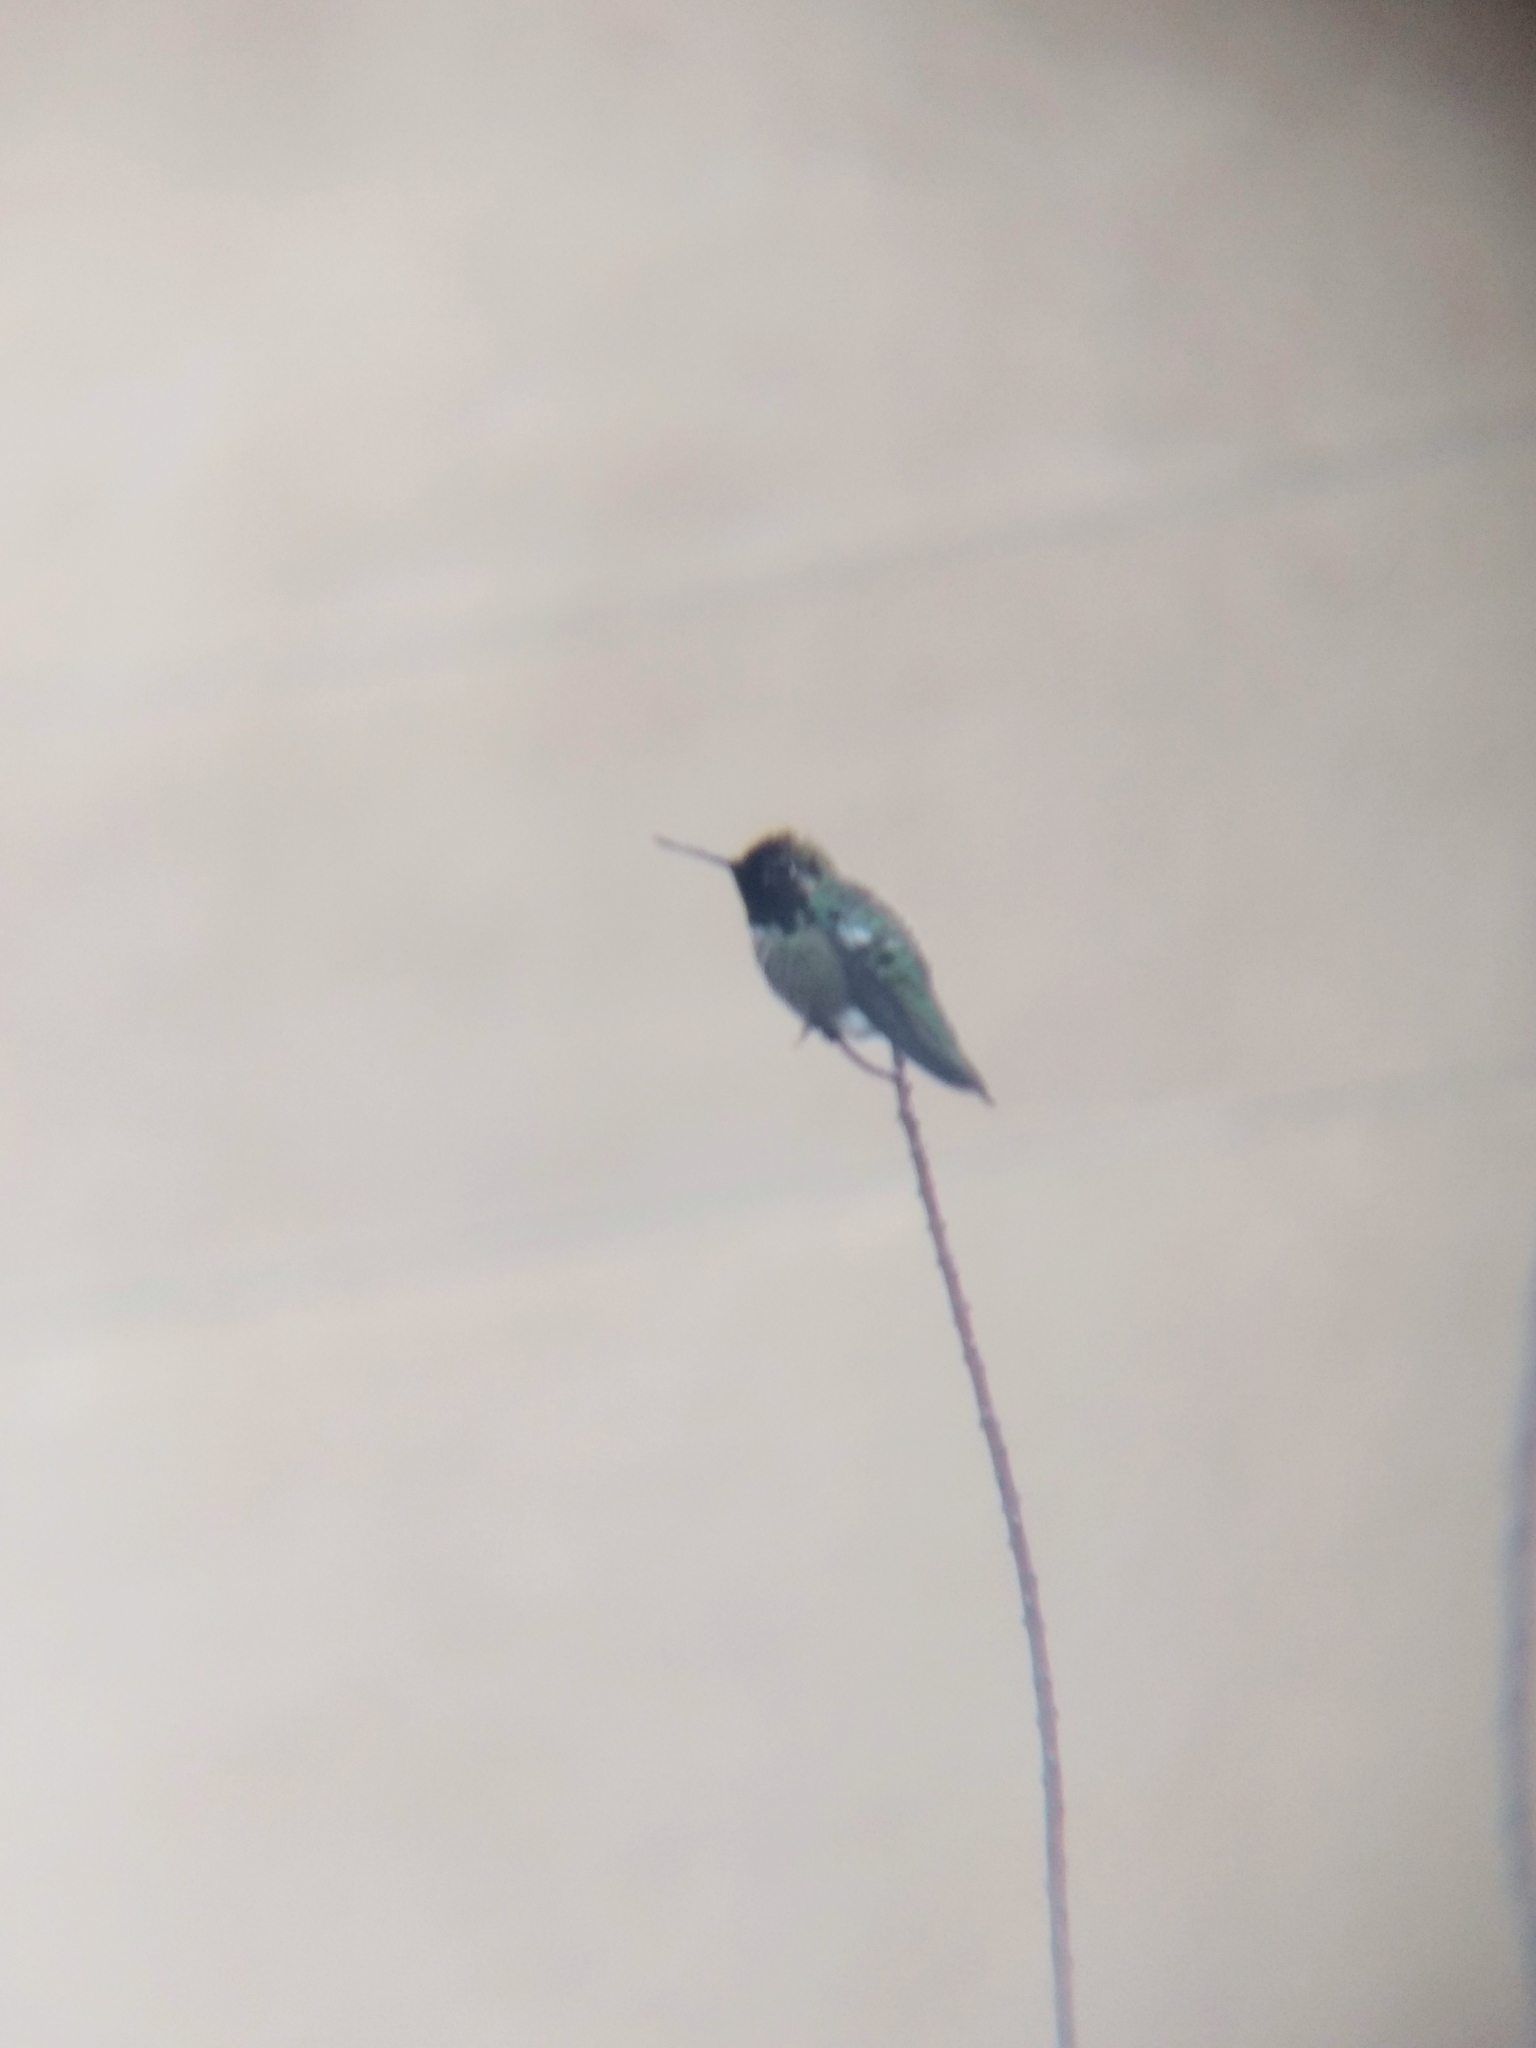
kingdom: Animalia
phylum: Chordata
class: Aves
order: Apodiformes
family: Trochilidae
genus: Calypte
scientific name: Calypte anna
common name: Anna's hummingbird
